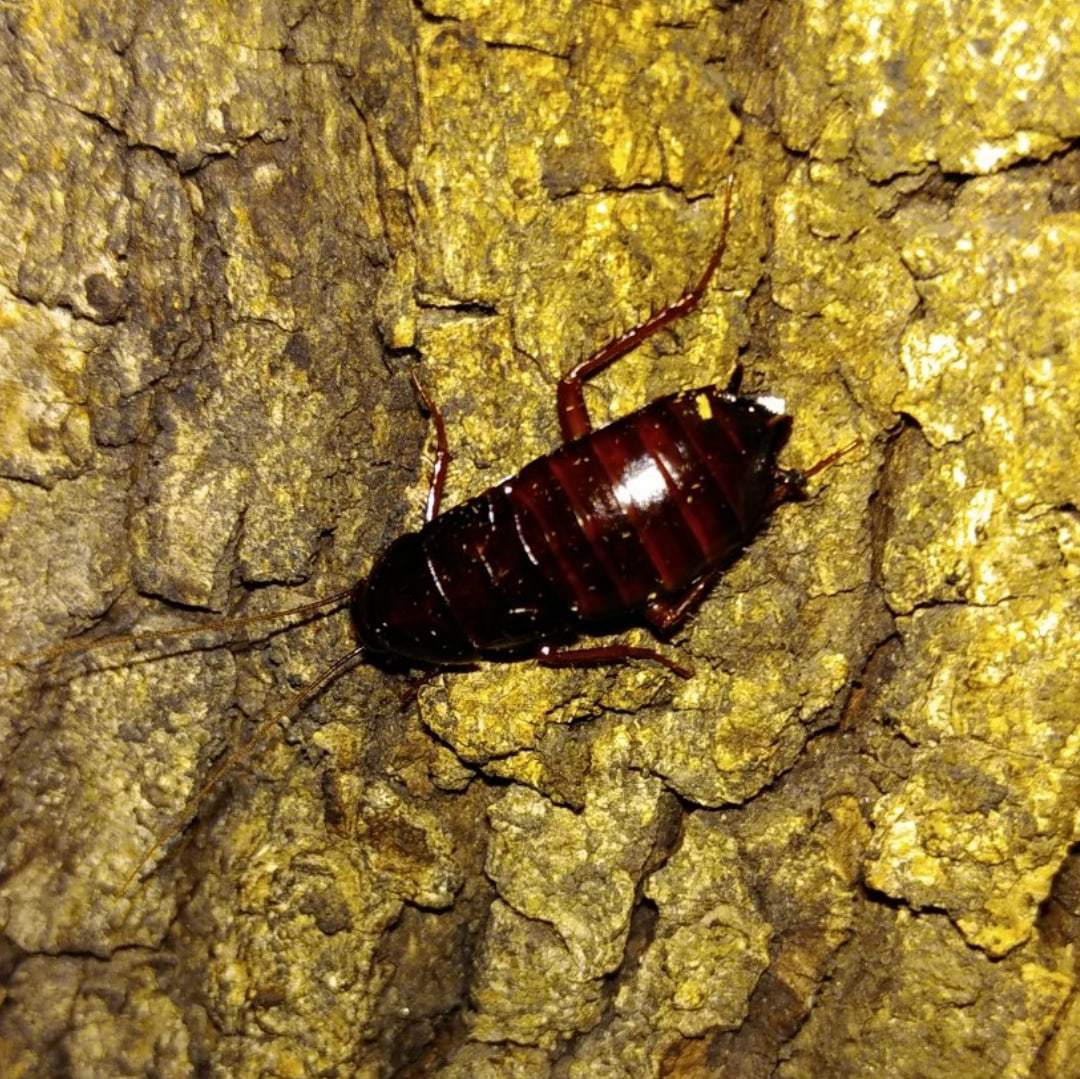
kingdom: Animalia
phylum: Arthropoda
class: Insecta
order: Blattodea
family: Blattidae
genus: Blatta
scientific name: Blatta orientalis
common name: Oriental cockroach
